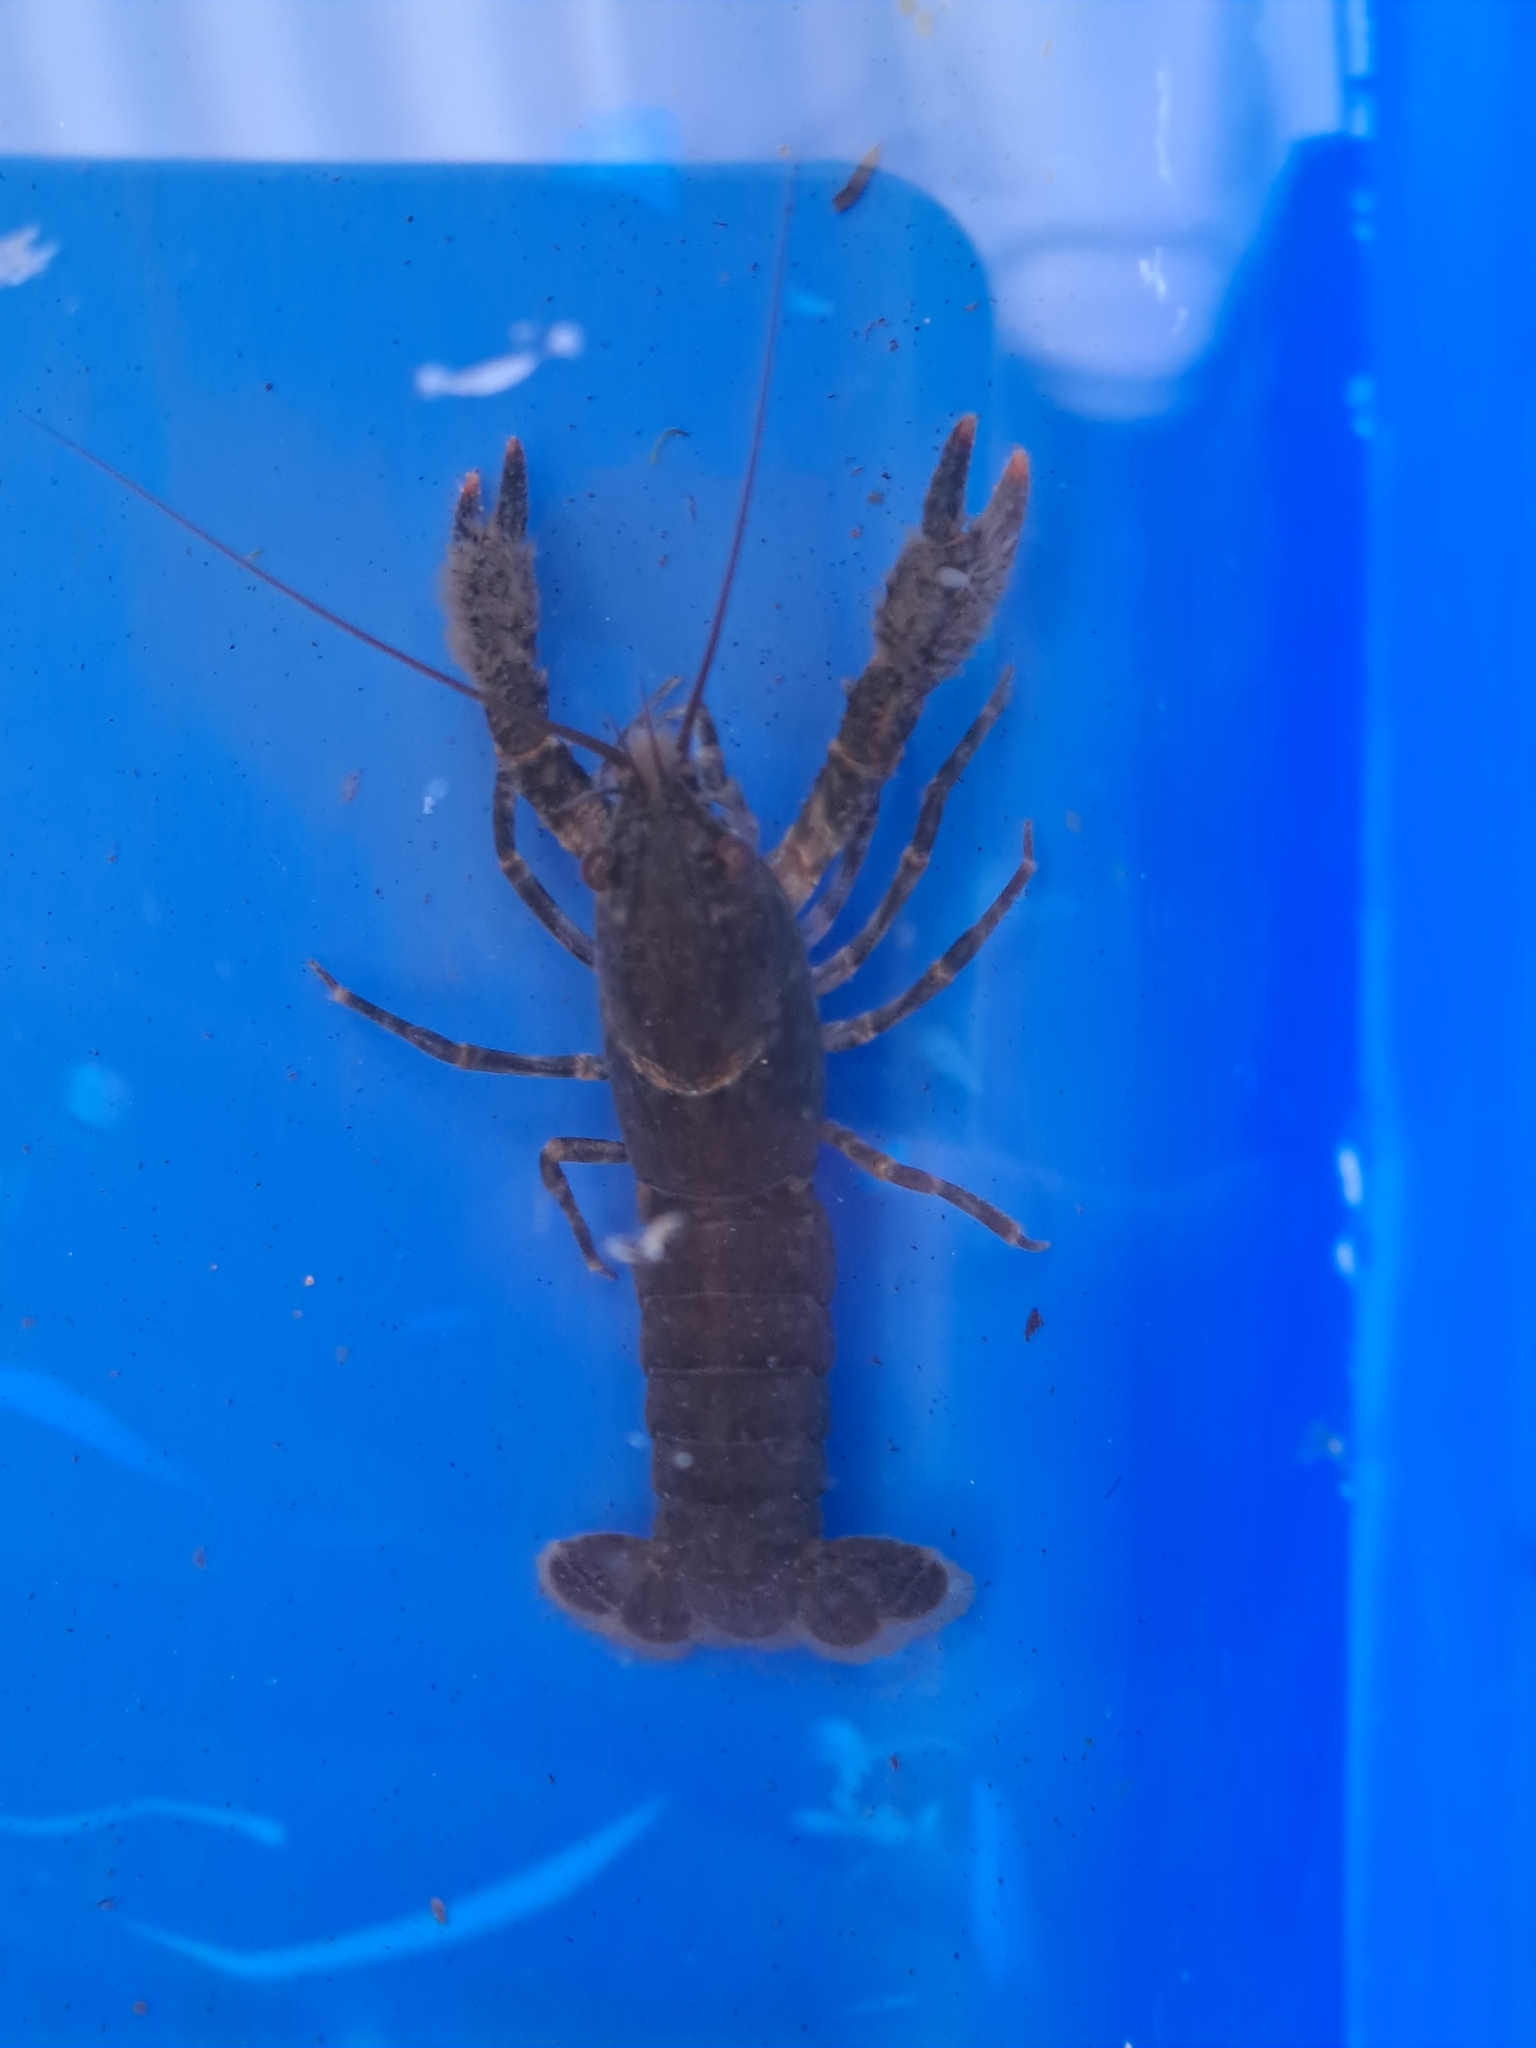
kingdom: Animalia
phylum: Arthropoda
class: Malacostraca
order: Decapoda
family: Parastacidae
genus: Paranephrops
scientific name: Paranephrops zealandicus
